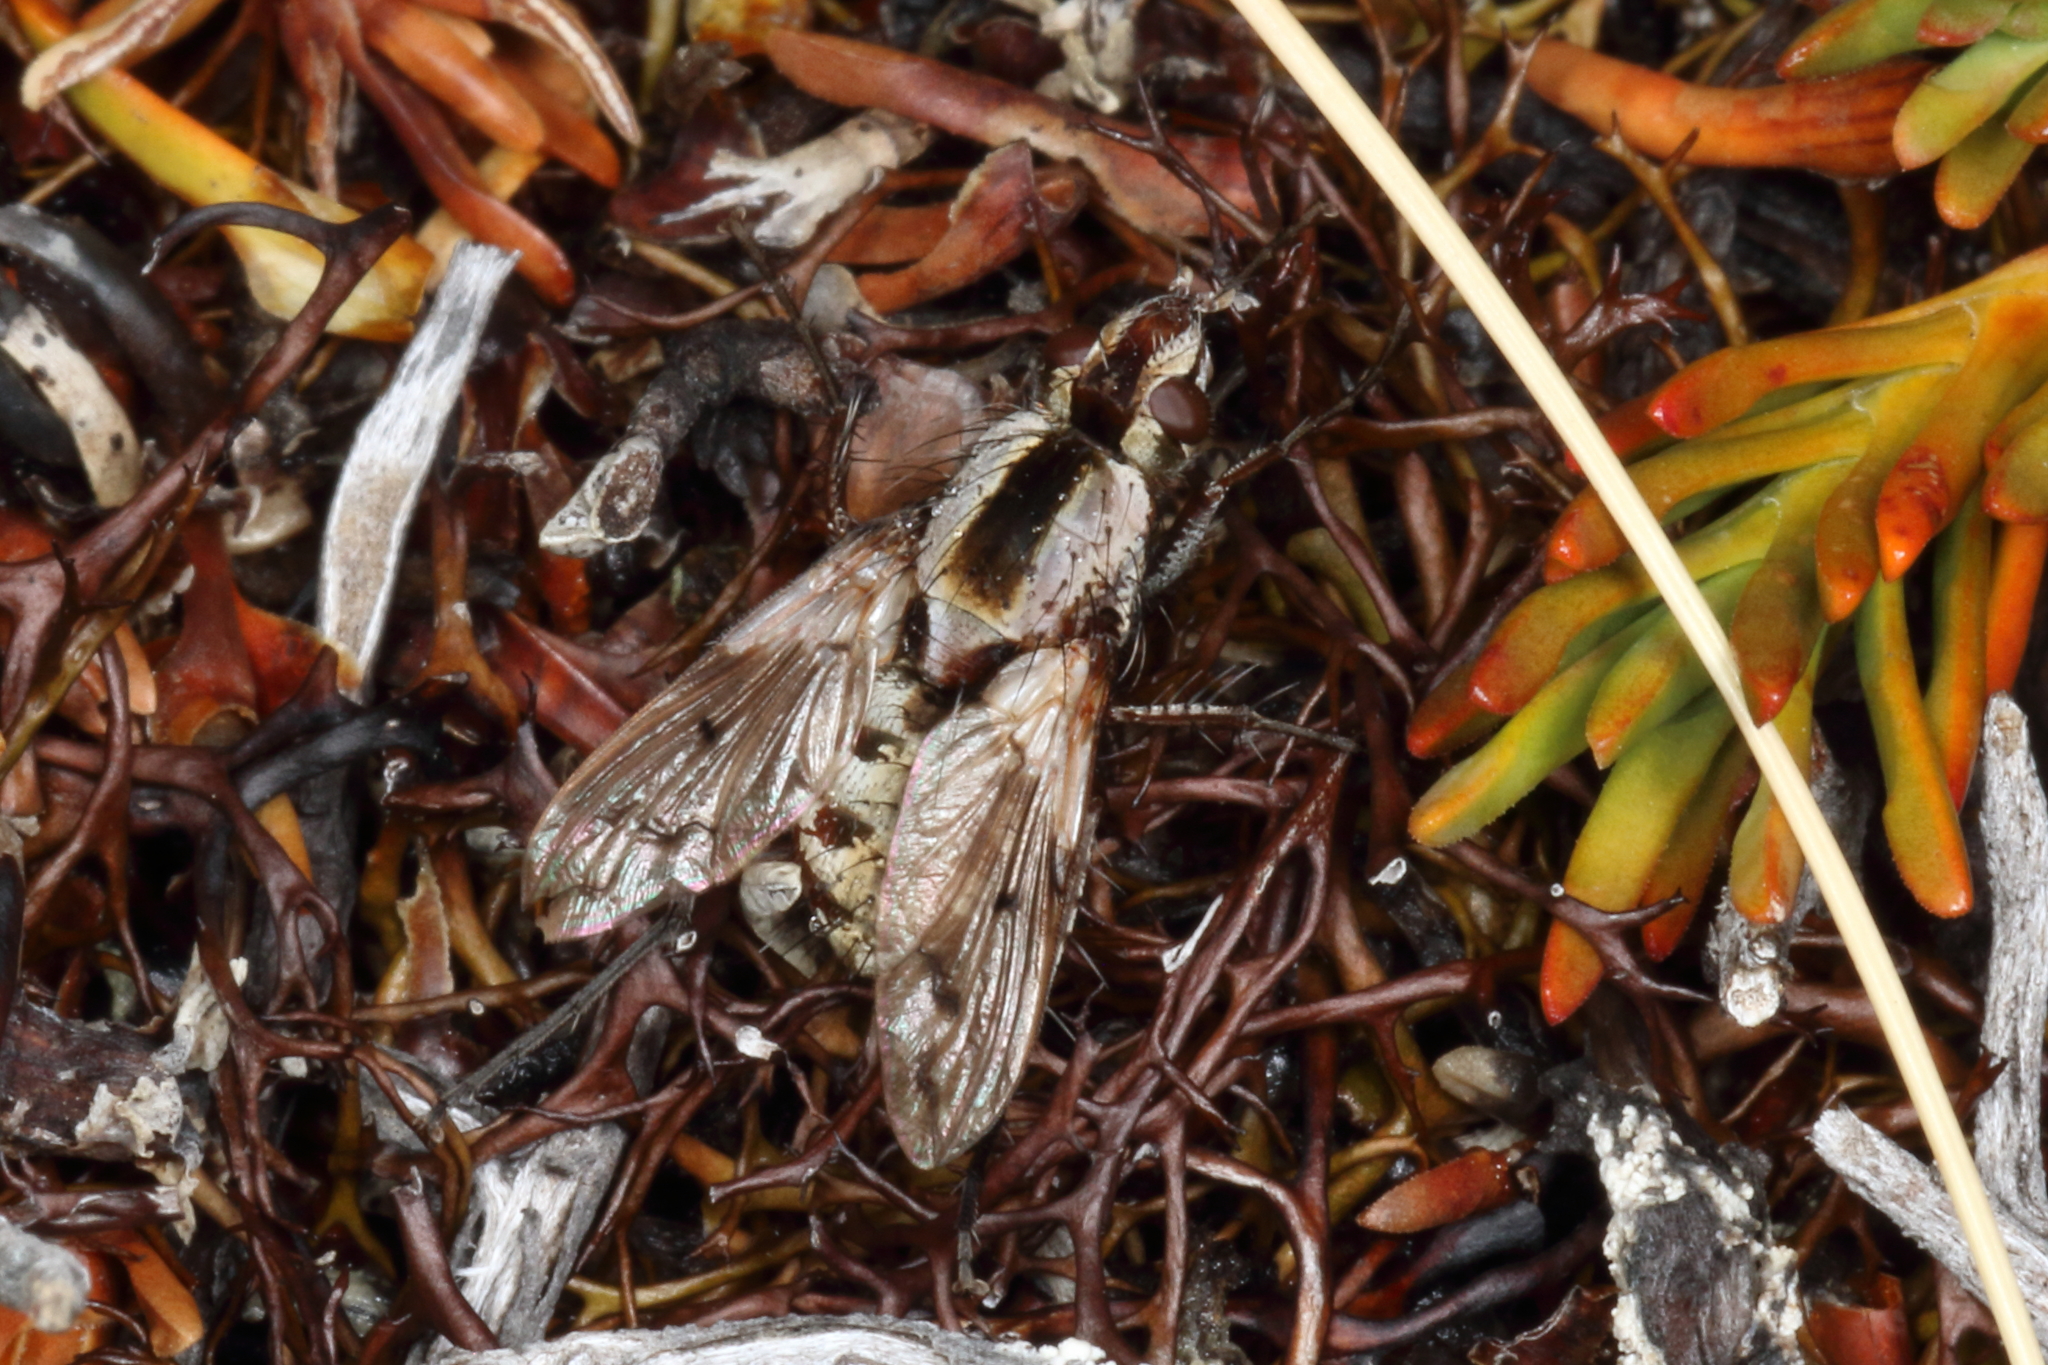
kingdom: Animalia
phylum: Arthropoda
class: Insecta
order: Diptera
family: Tachinidae
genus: Proscissio
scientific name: Proscissio milleri
